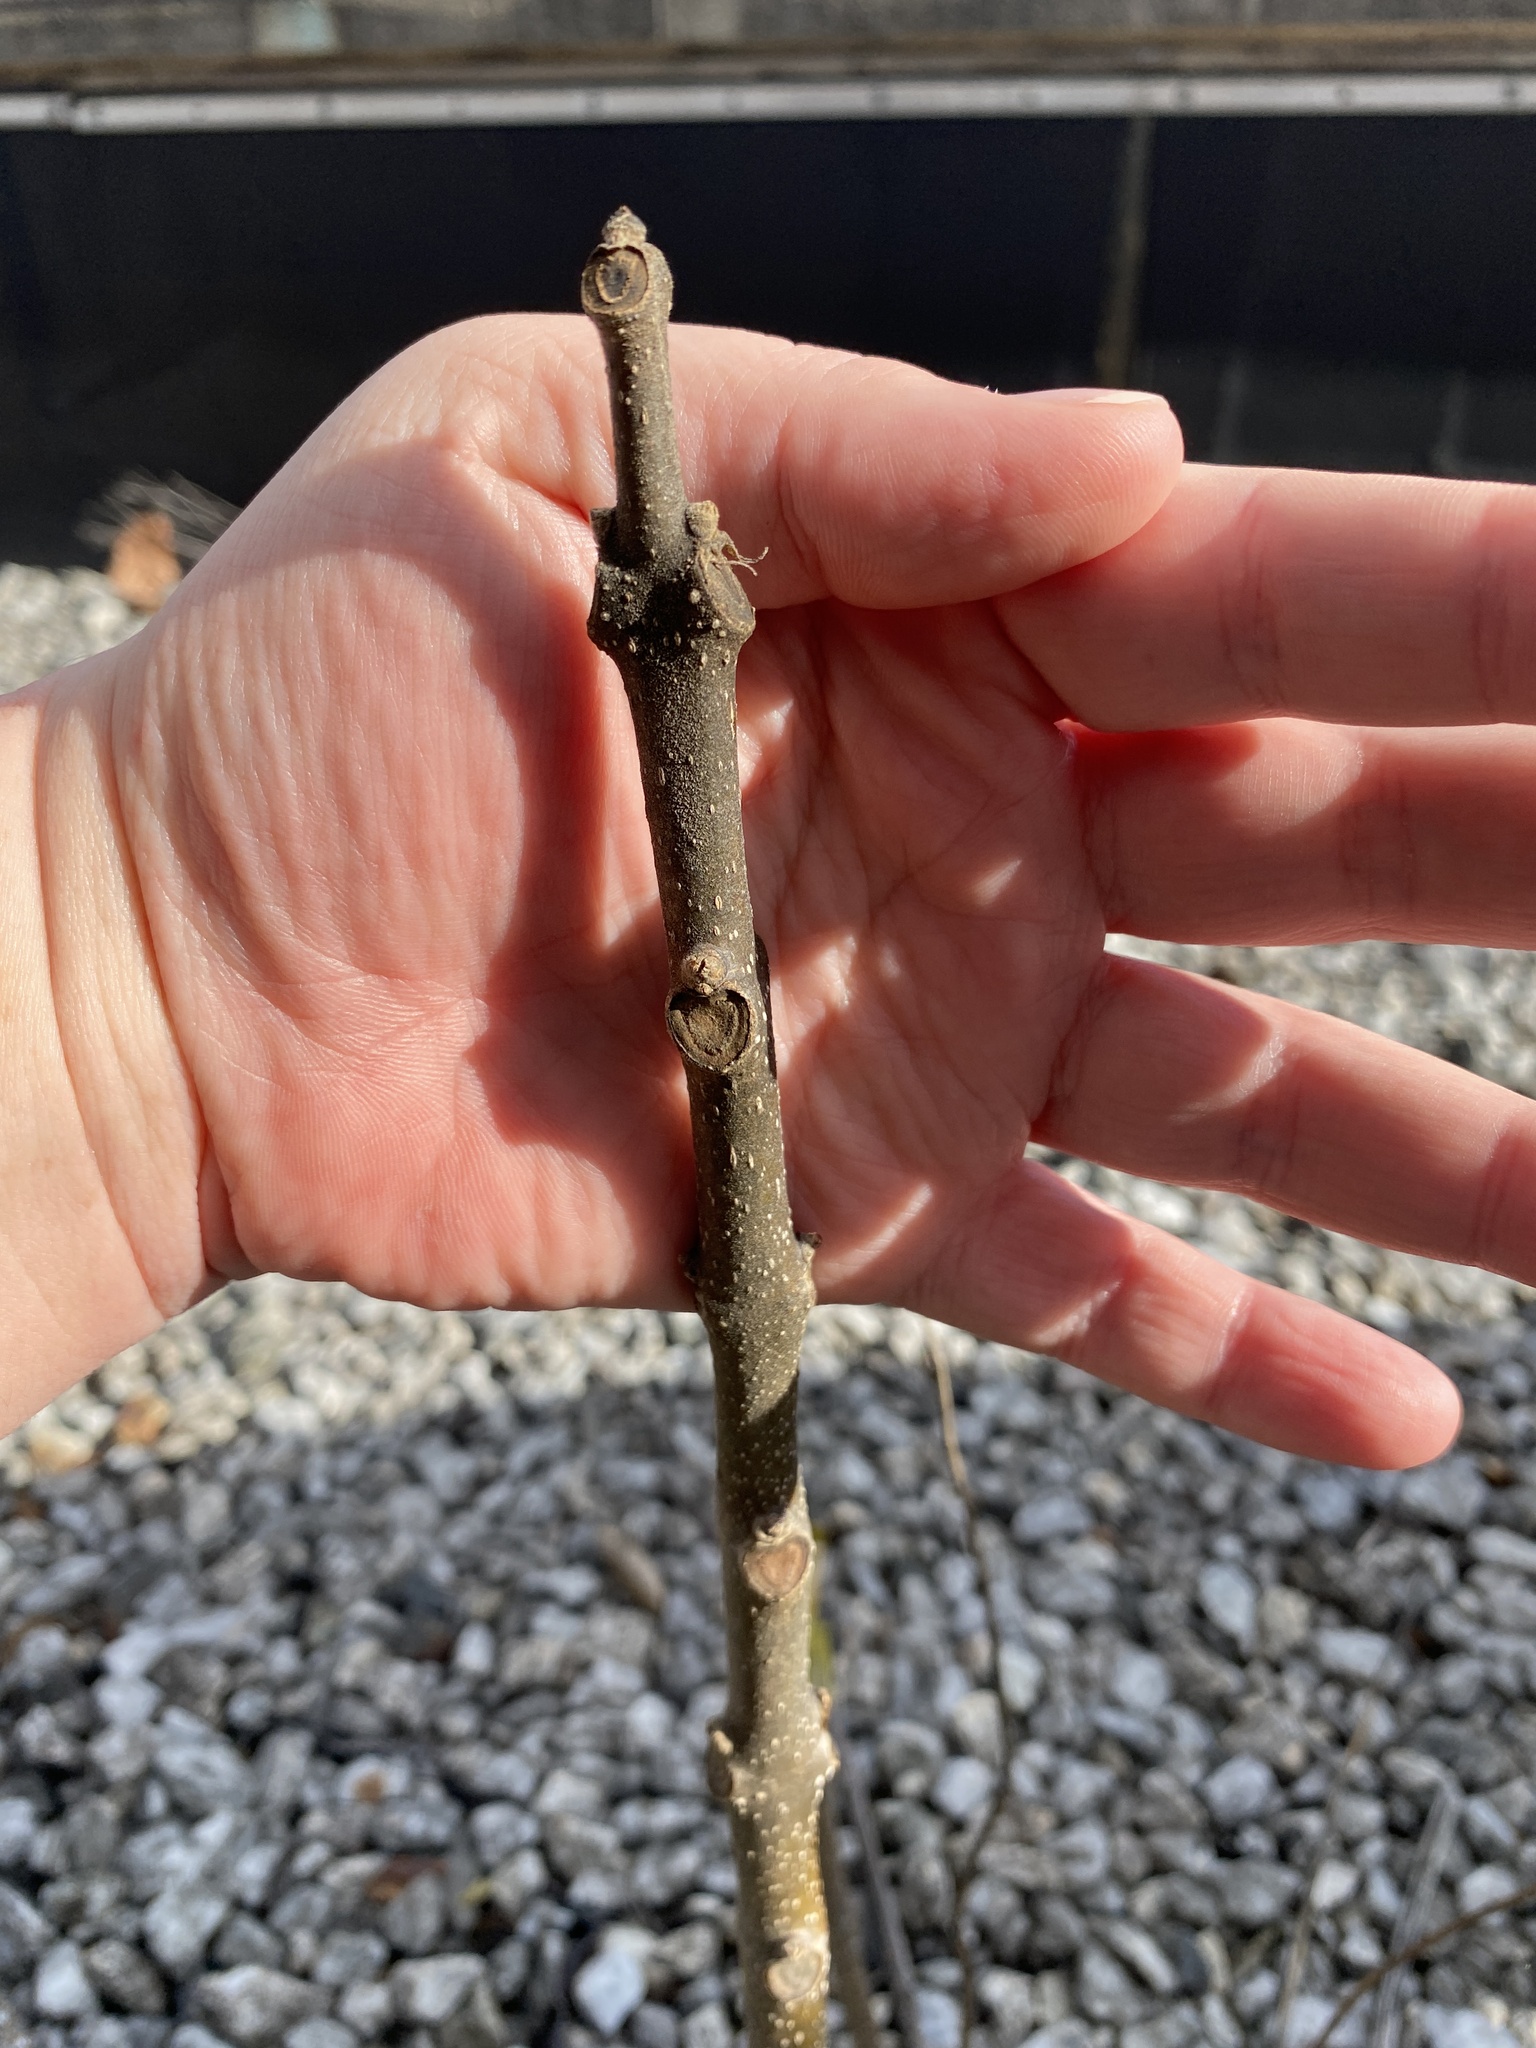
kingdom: Plantae
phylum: Tracheophyta
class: Magnoliopsida
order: Lamiales
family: Bignoniaceae
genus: Catalpa
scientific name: Catalpa
